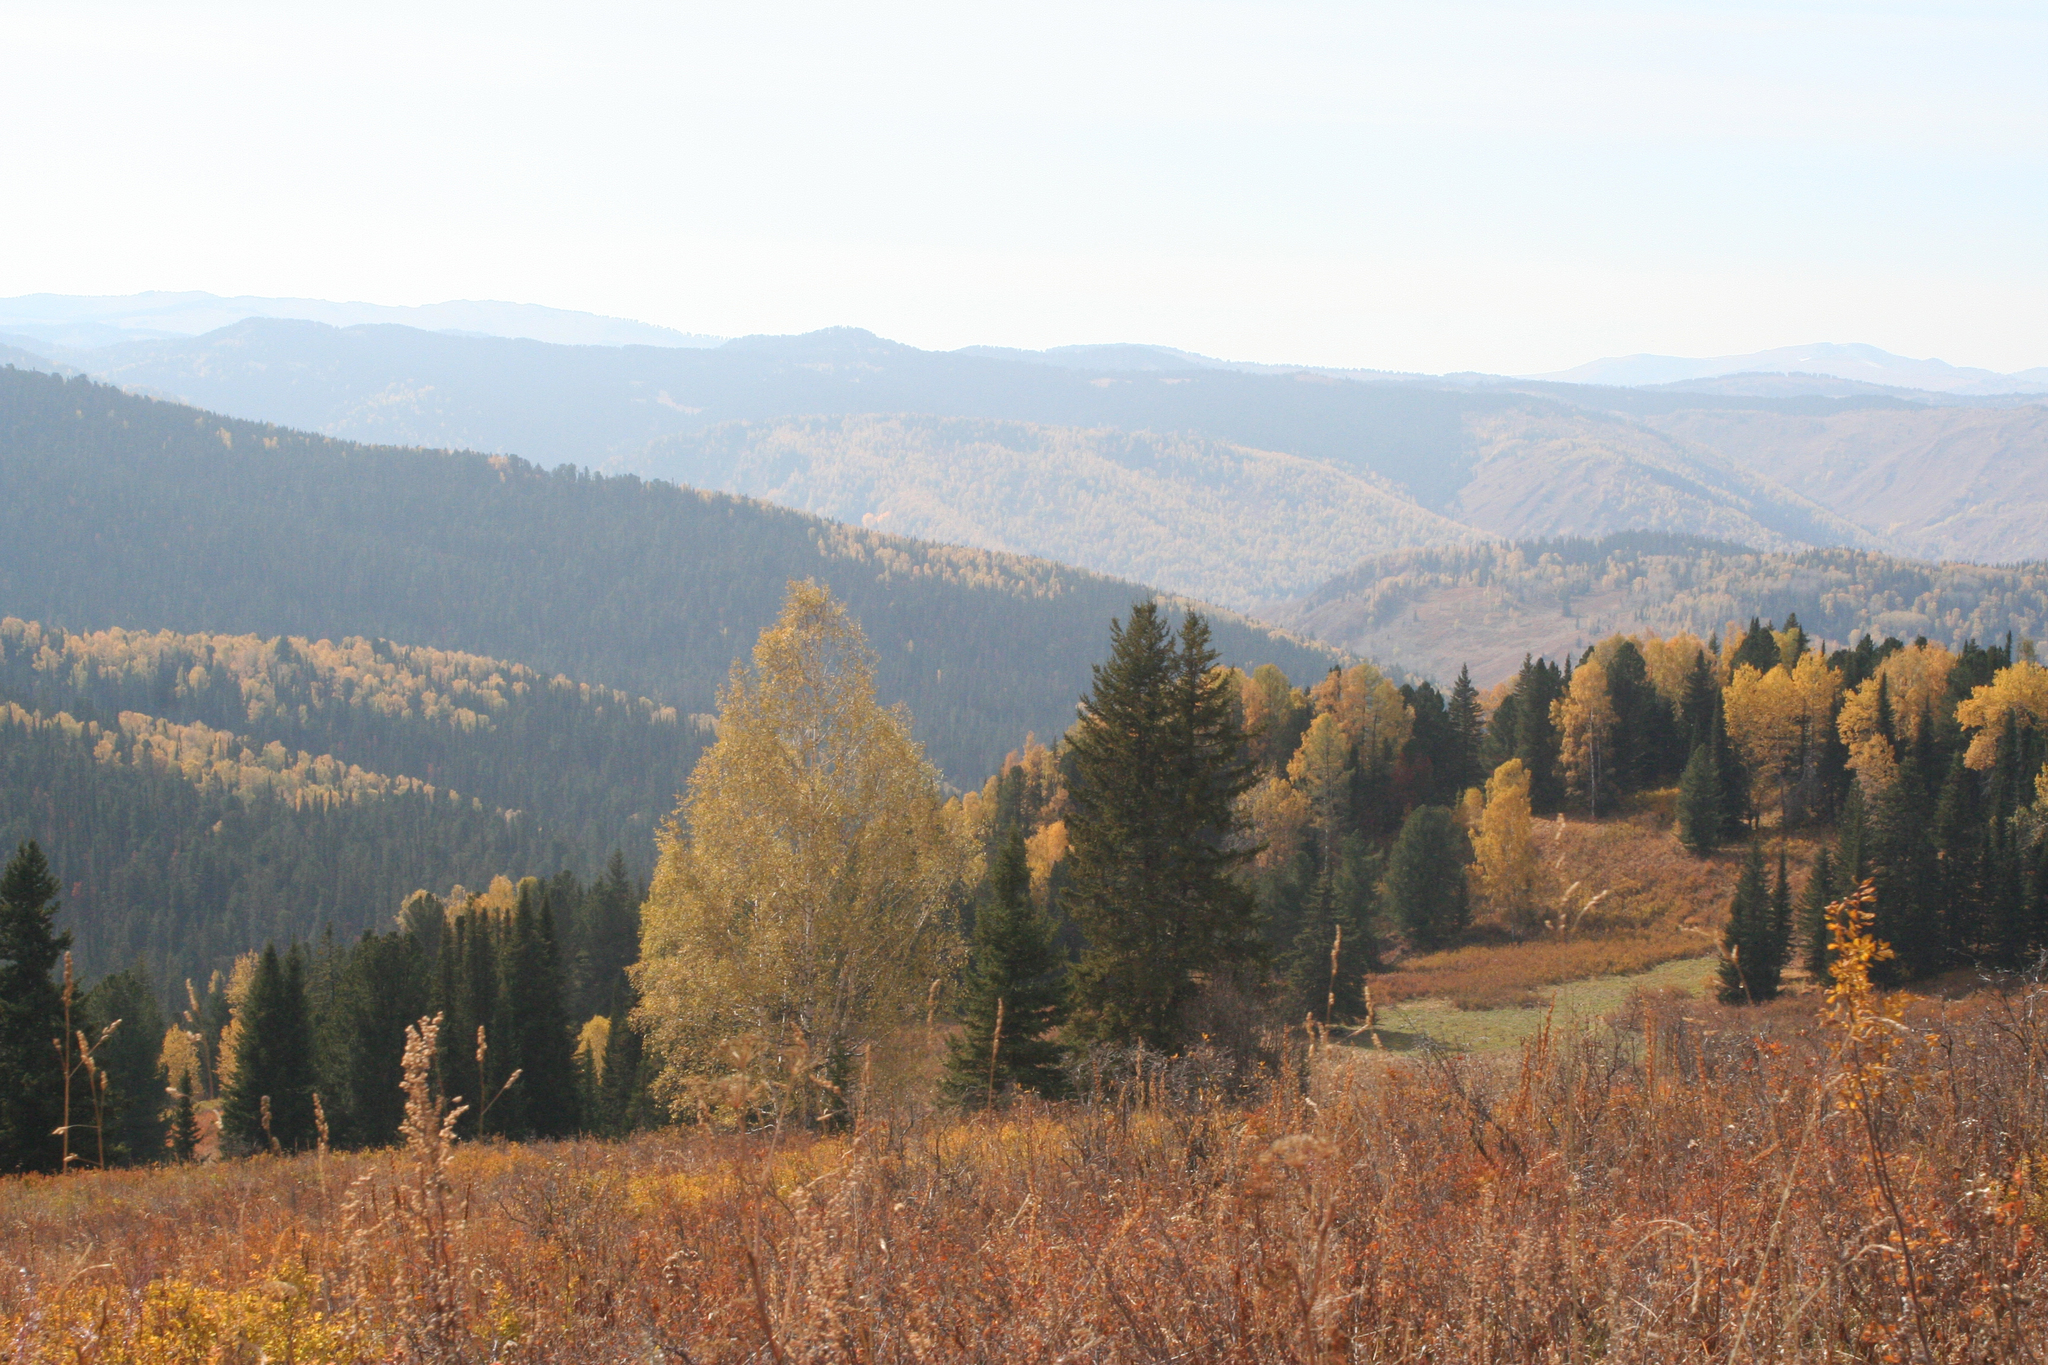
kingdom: Plantae
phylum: Tracheophyta
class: Pinopsida
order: Pinales
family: Pinaceae
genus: Picea
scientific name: Picea obovata
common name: Siberian spruce
